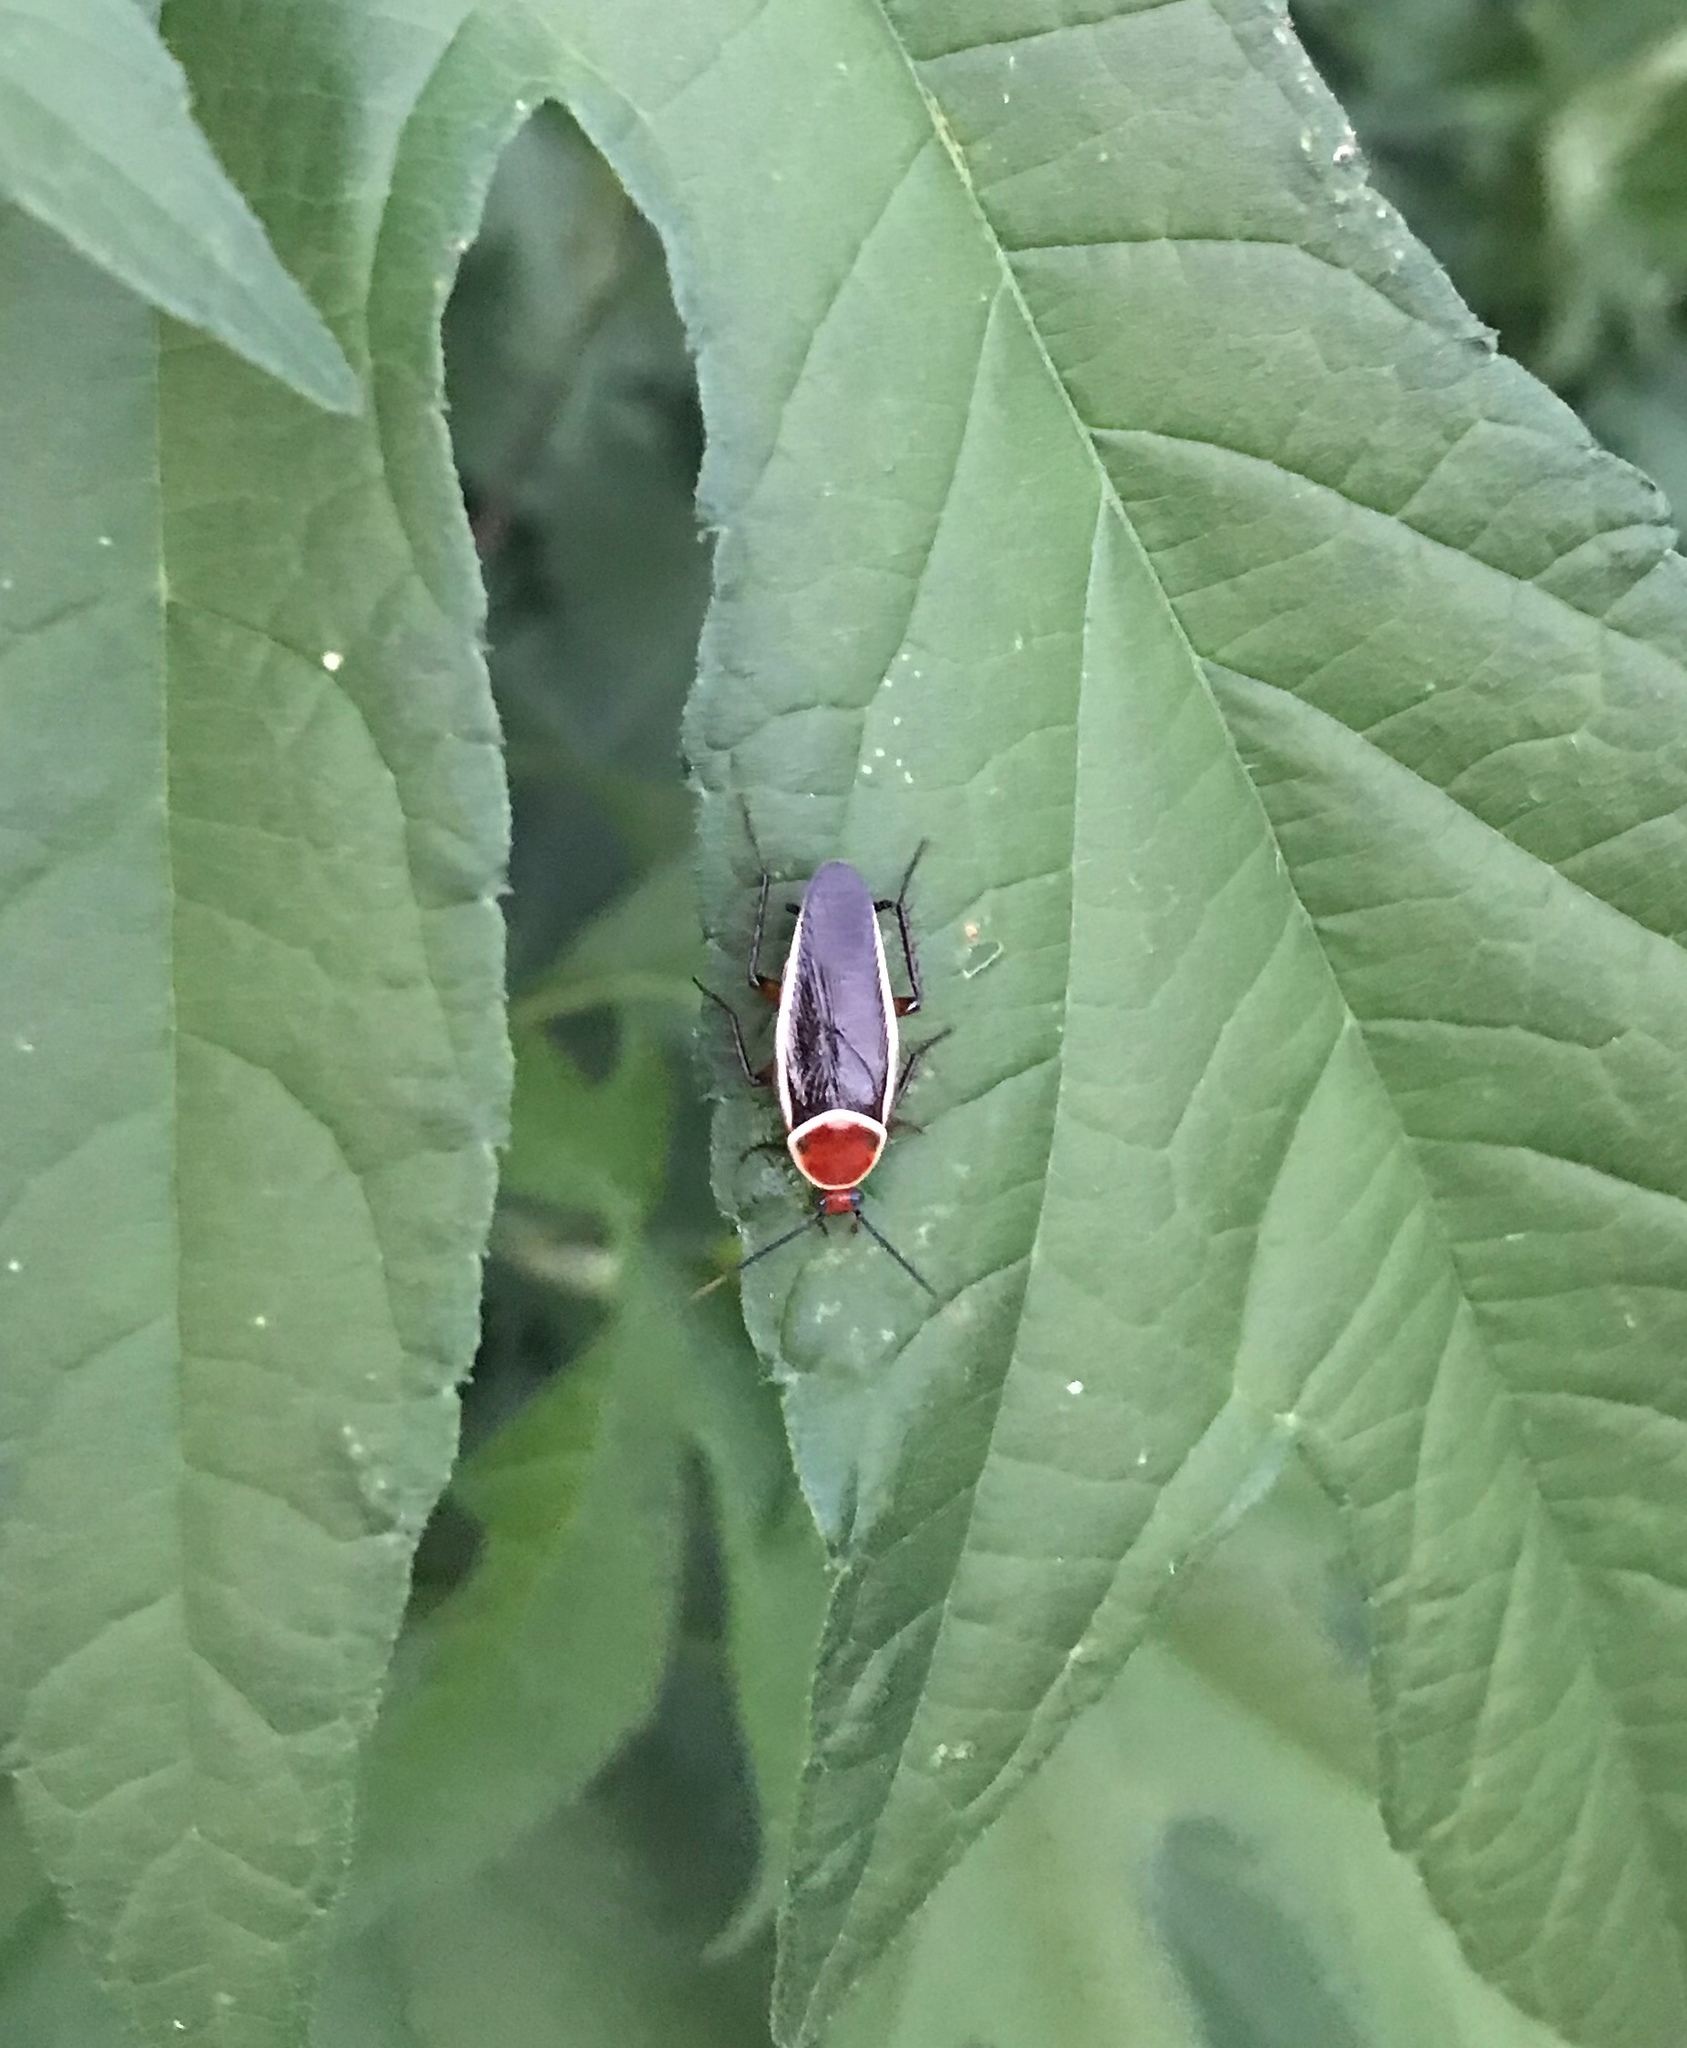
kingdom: Animalia
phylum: Arthropoda
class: Insecta
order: Blattodea
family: Ectobiidae
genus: Pseudomops
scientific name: Pseudomops septentrionalis
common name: Pale-bordered field cockroach
